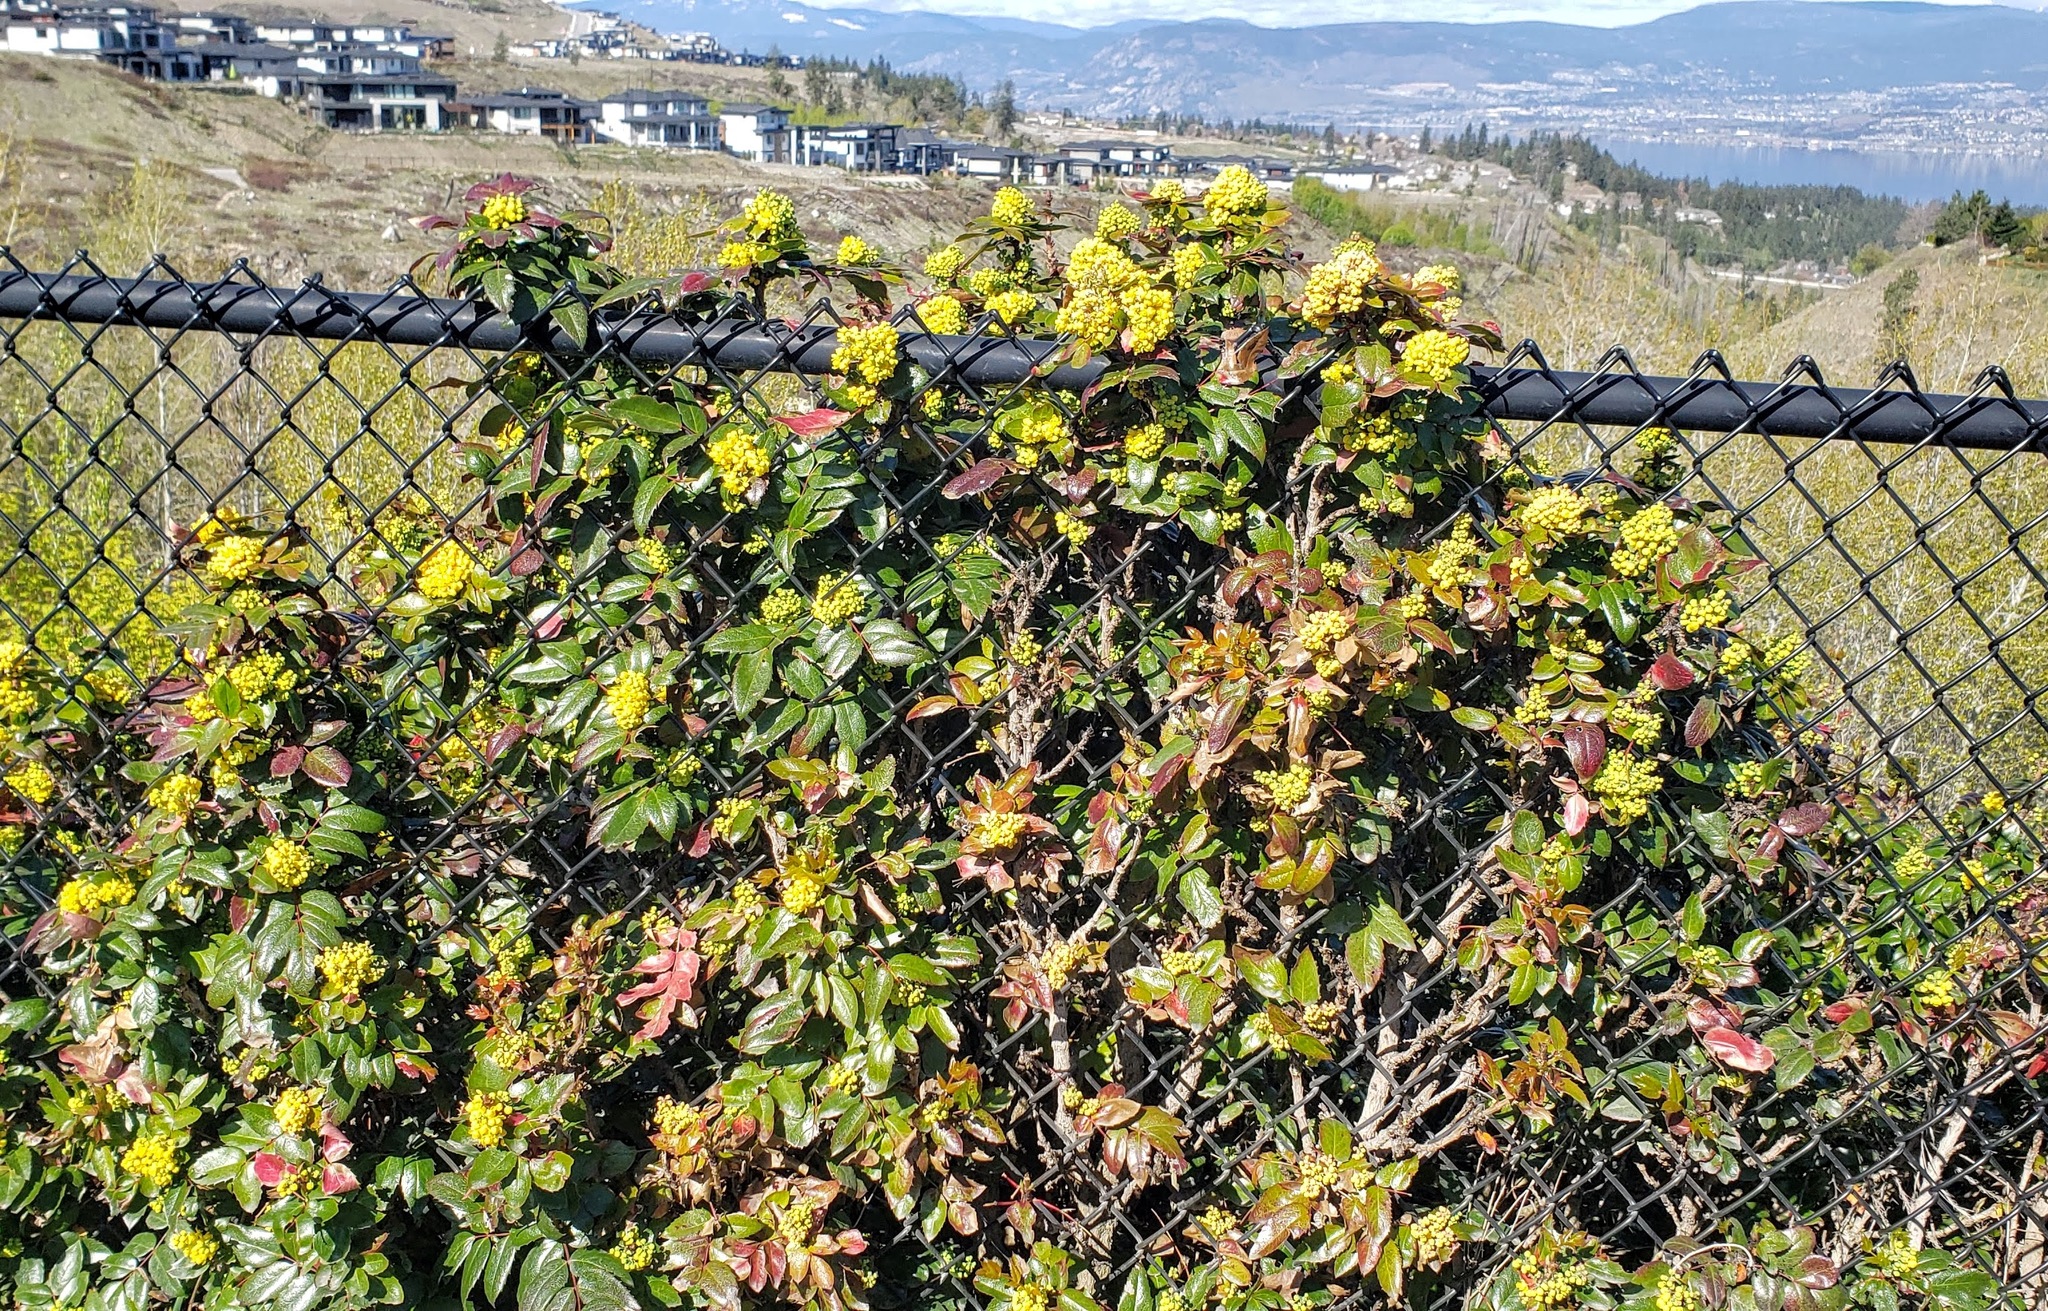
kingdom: Plantae
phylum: Tracheophyta
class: Magnoliopsida
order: Ranunculales
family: Berberidaceae
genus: Mahonia
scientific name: Mahonia aquifolium
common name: Oregon-grape
